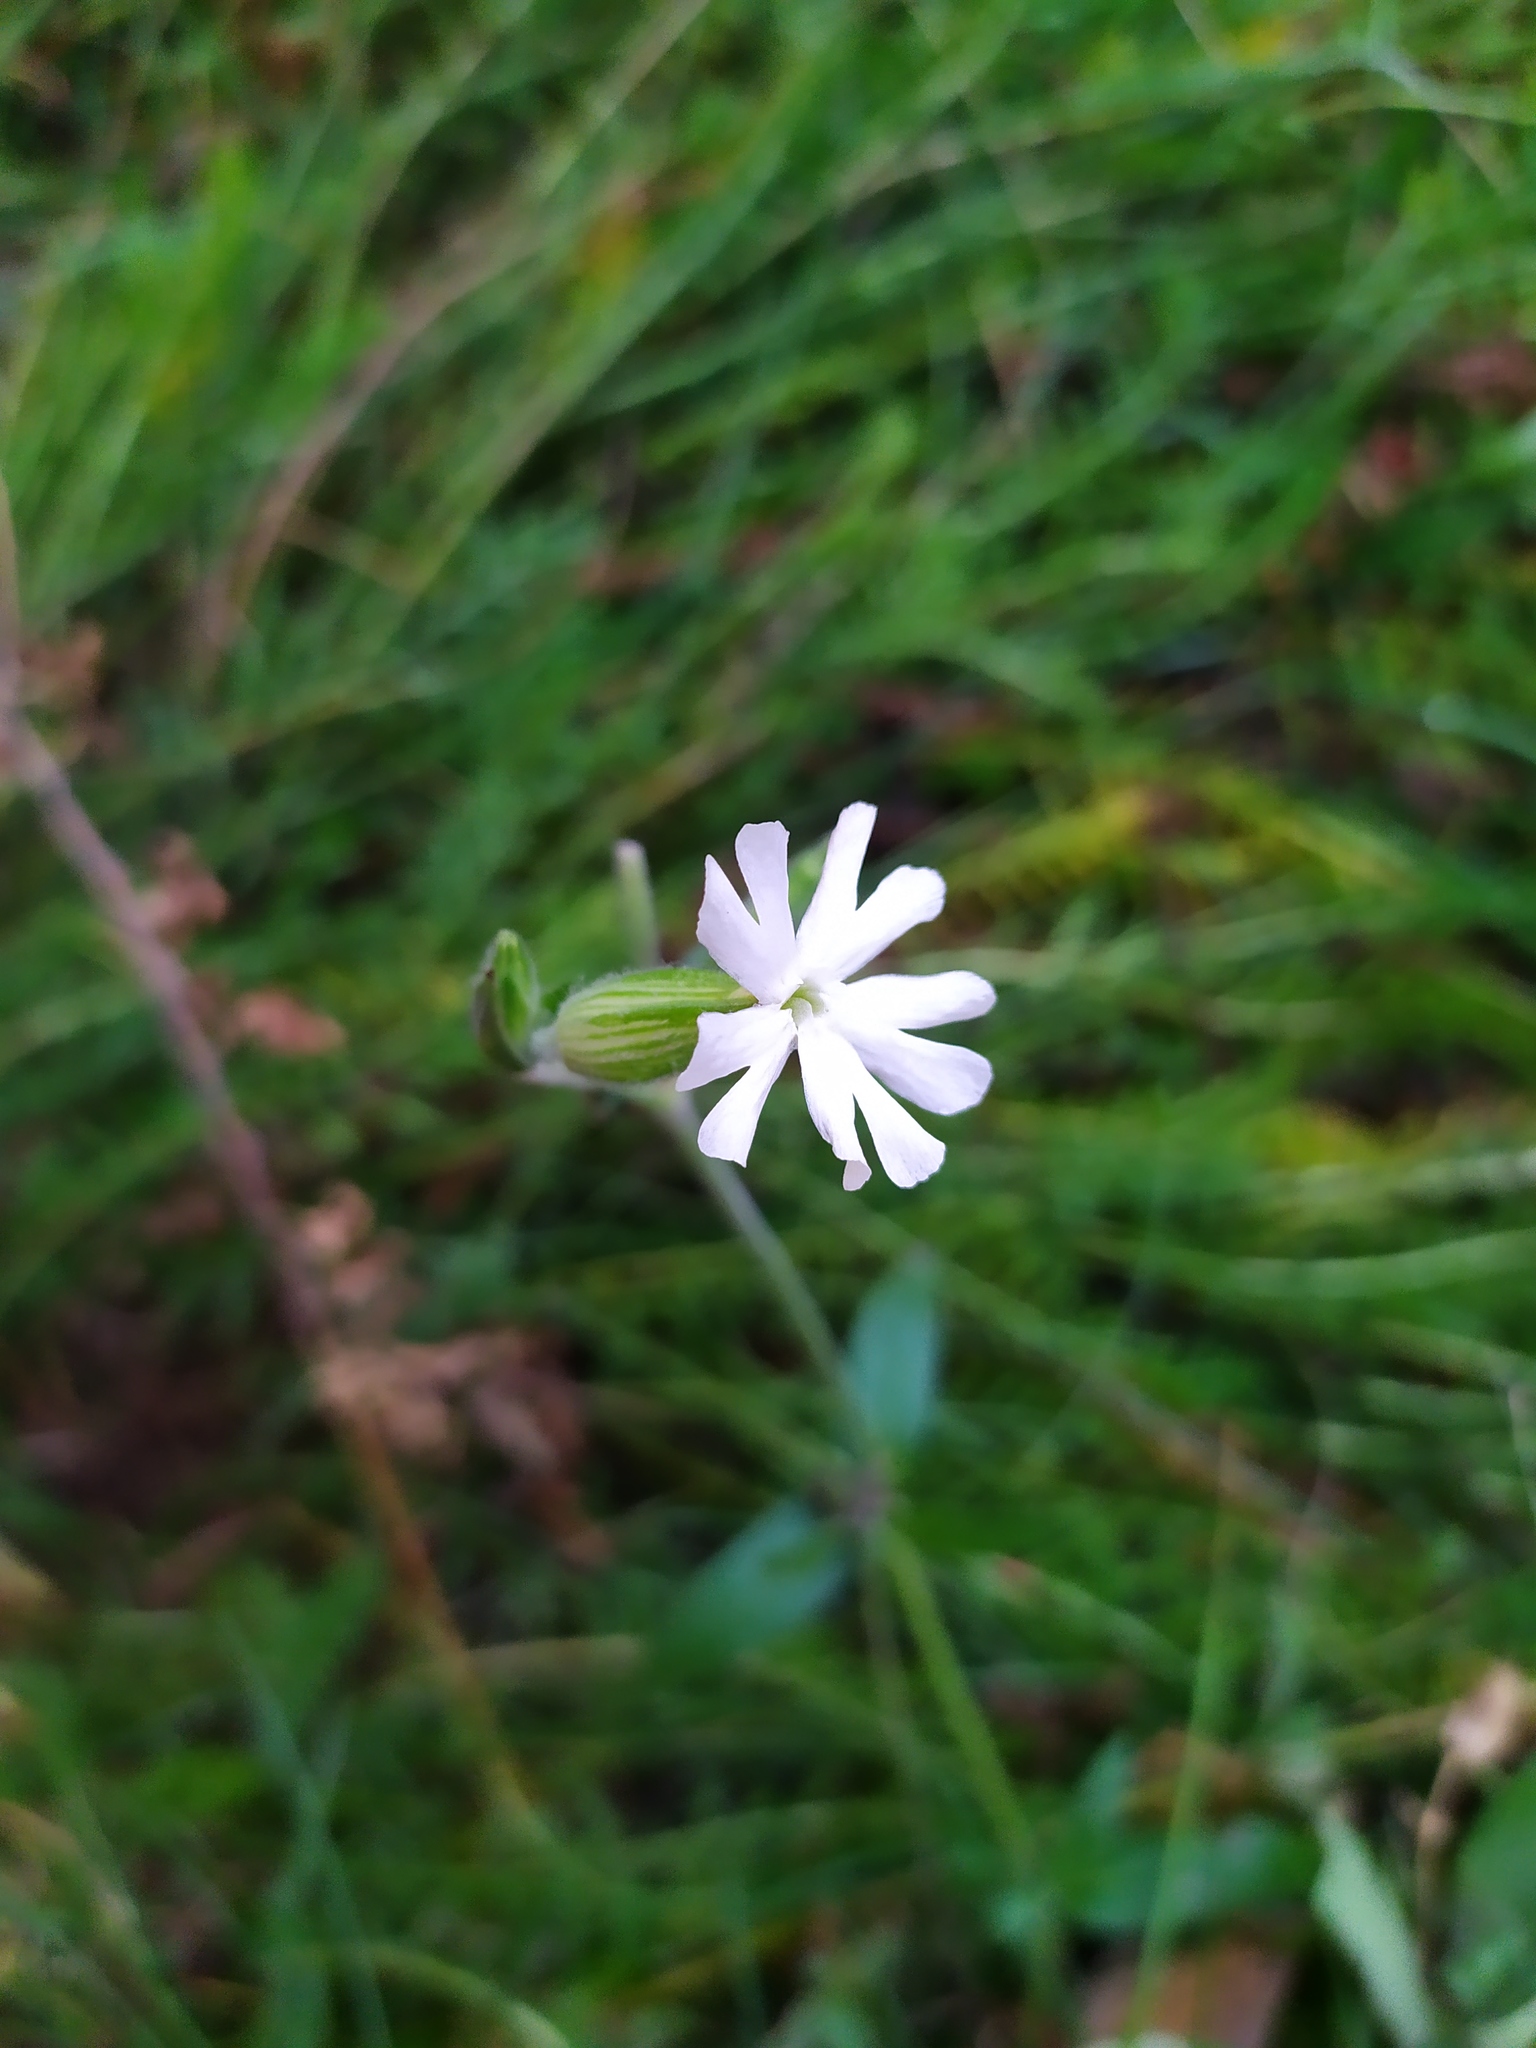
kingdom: Plantae
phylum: Tracheophyta
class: Magnoliopsida
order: Caryophyllales
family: Caryophyllaceae
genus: Silene
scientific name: Silene latifolia
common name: White campion
